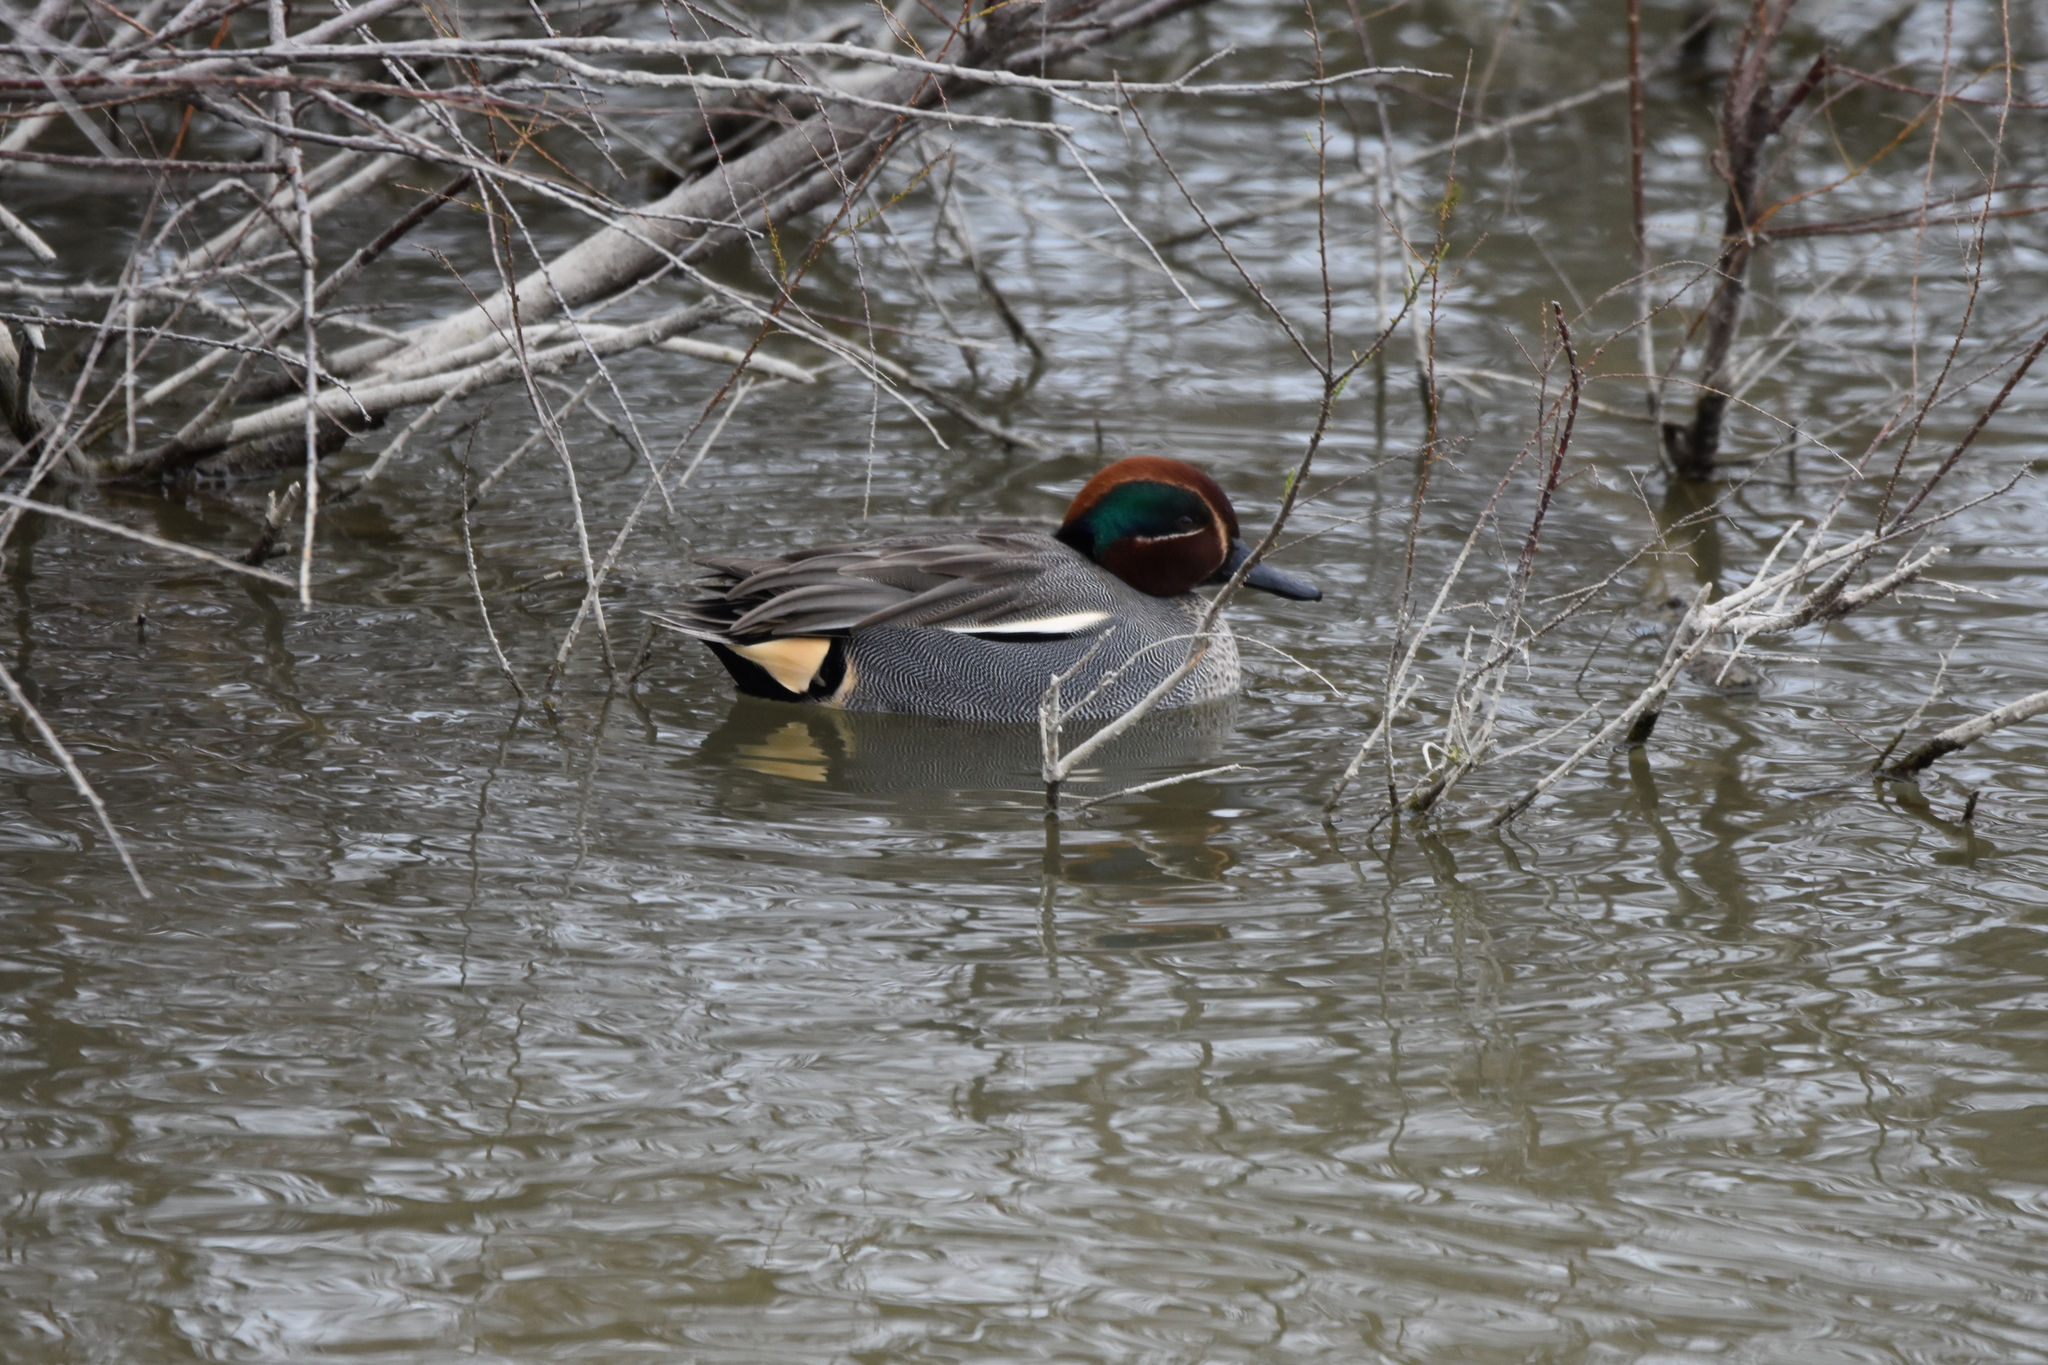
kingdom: Animalia
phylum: Chordata
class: Aves
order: Anseriformes
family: Anatidae
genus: Anas
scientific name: Anas crecca
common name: Eurasian teal
